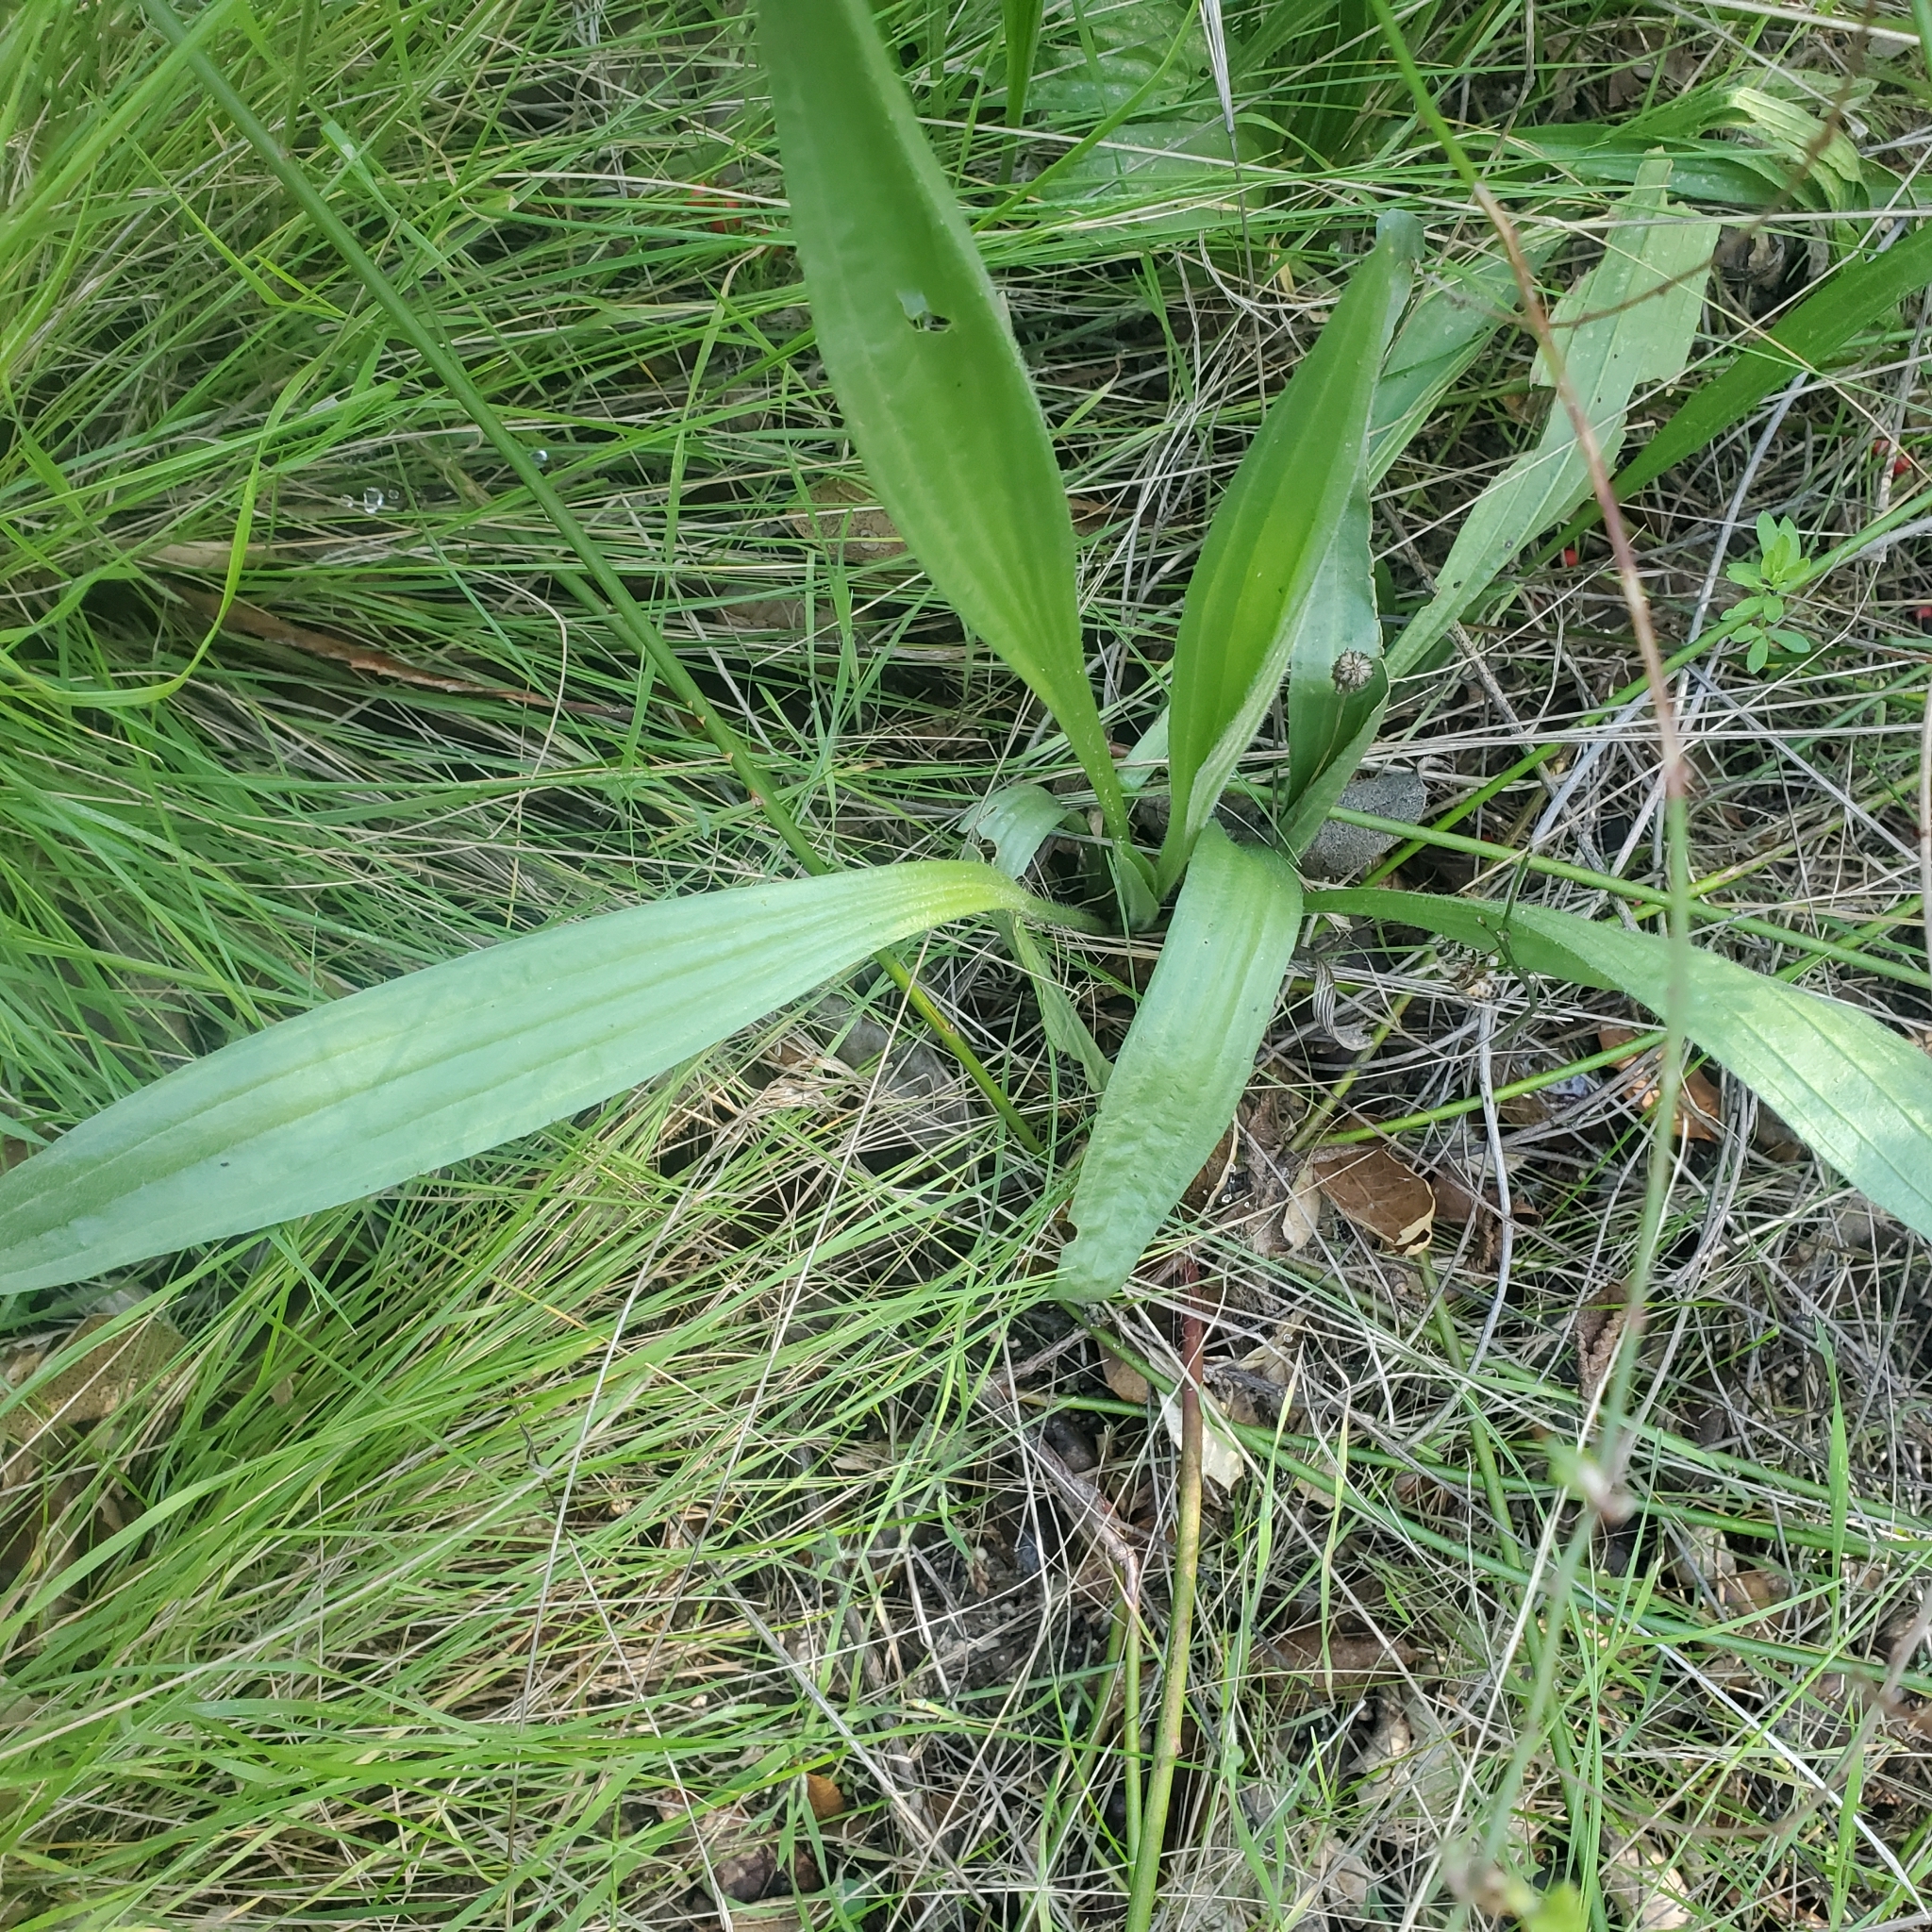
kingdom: Plantae
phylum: Tracheophyta
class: Magnoliopsida
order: Lamiales
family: Plantaginaceae
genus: Plantago
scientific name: Plantago lanceolata
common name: Ribwort plantain
